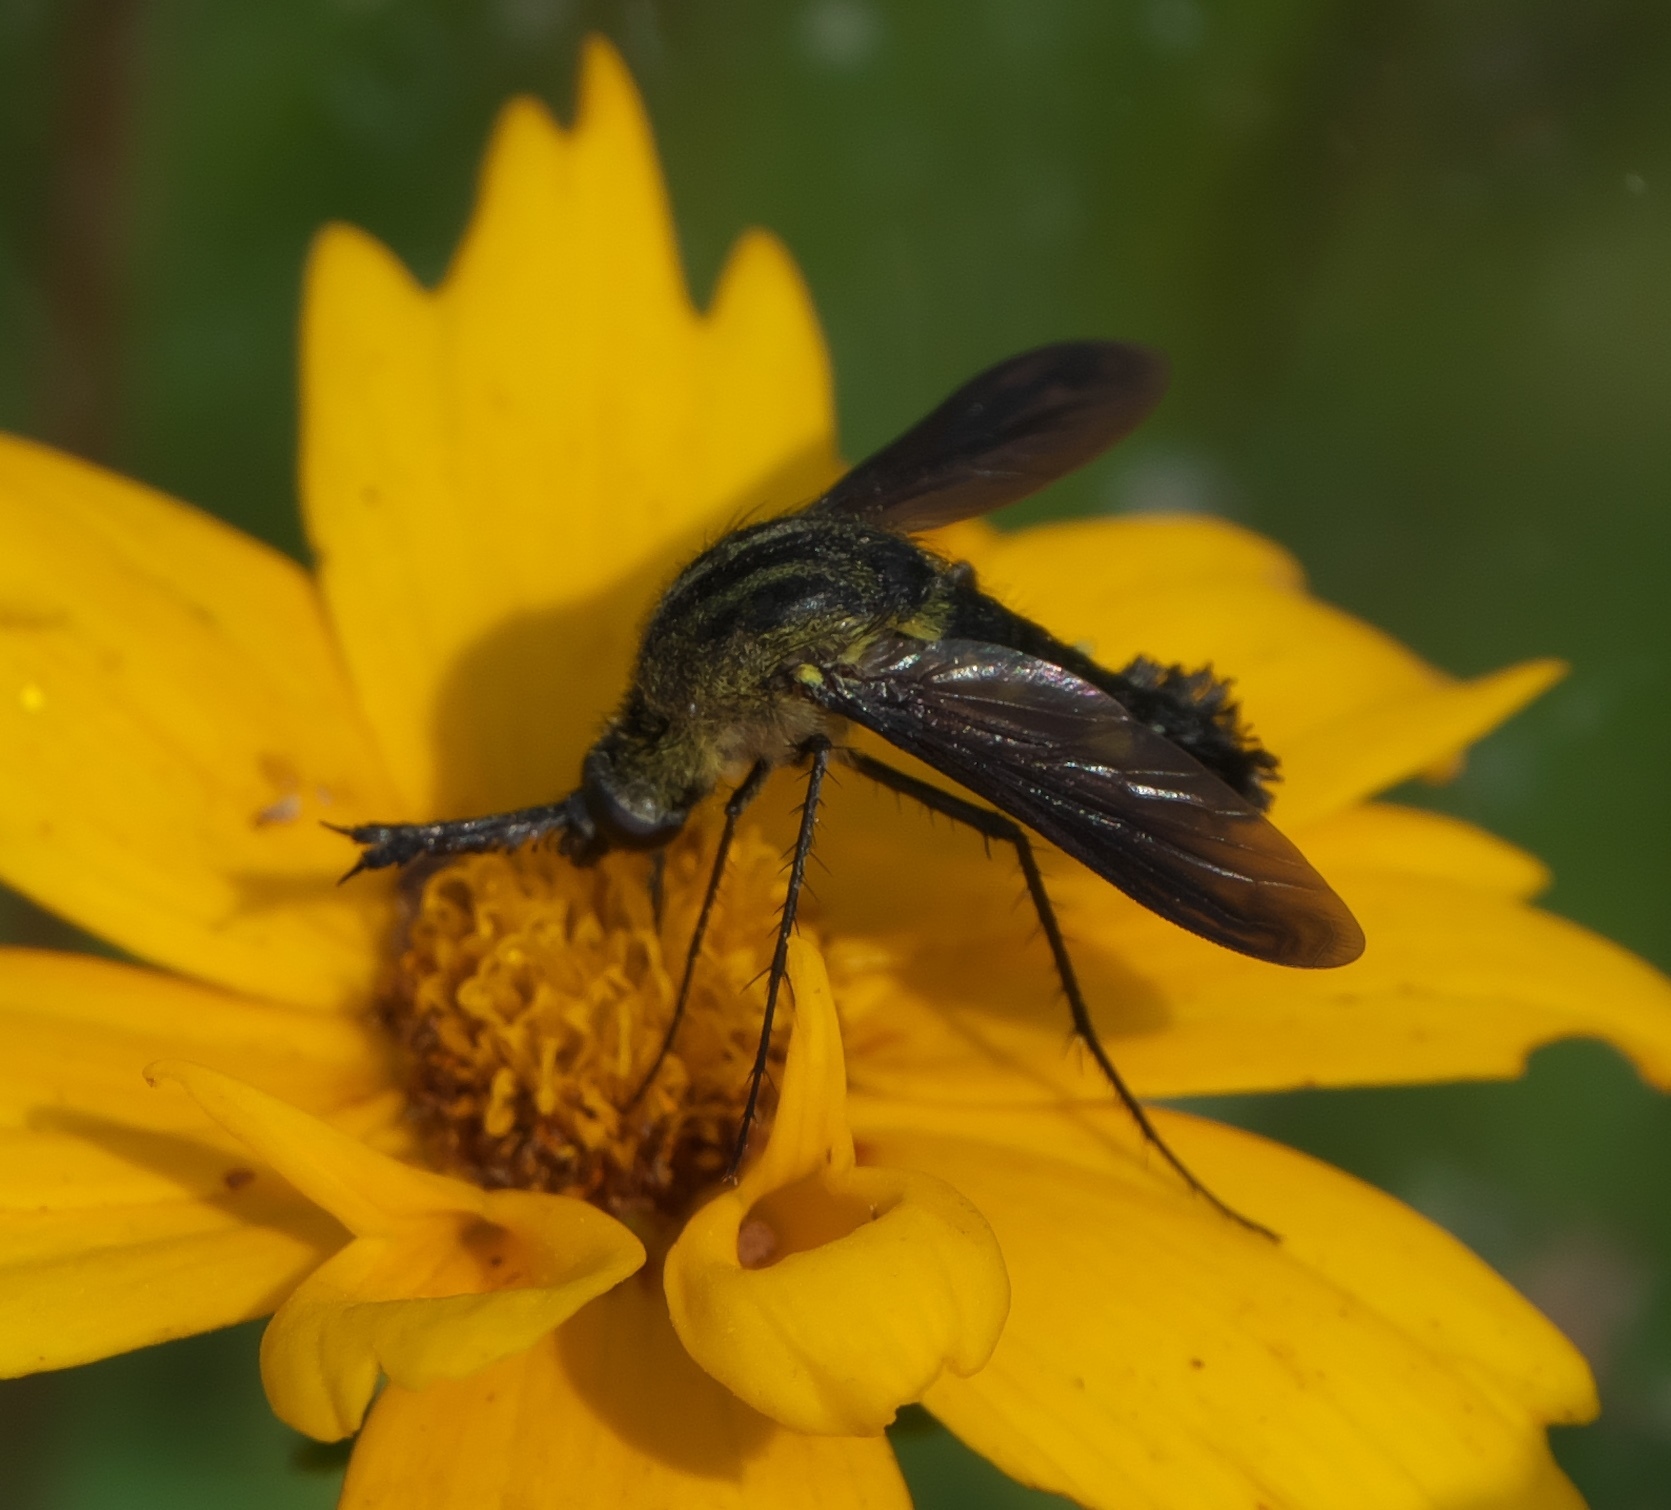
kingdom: Animalia
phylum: Arthropoda
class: Insecta
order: Diptera
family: Bombyliidae
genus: Lepidophora
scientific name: Lepidophora lepidocera
